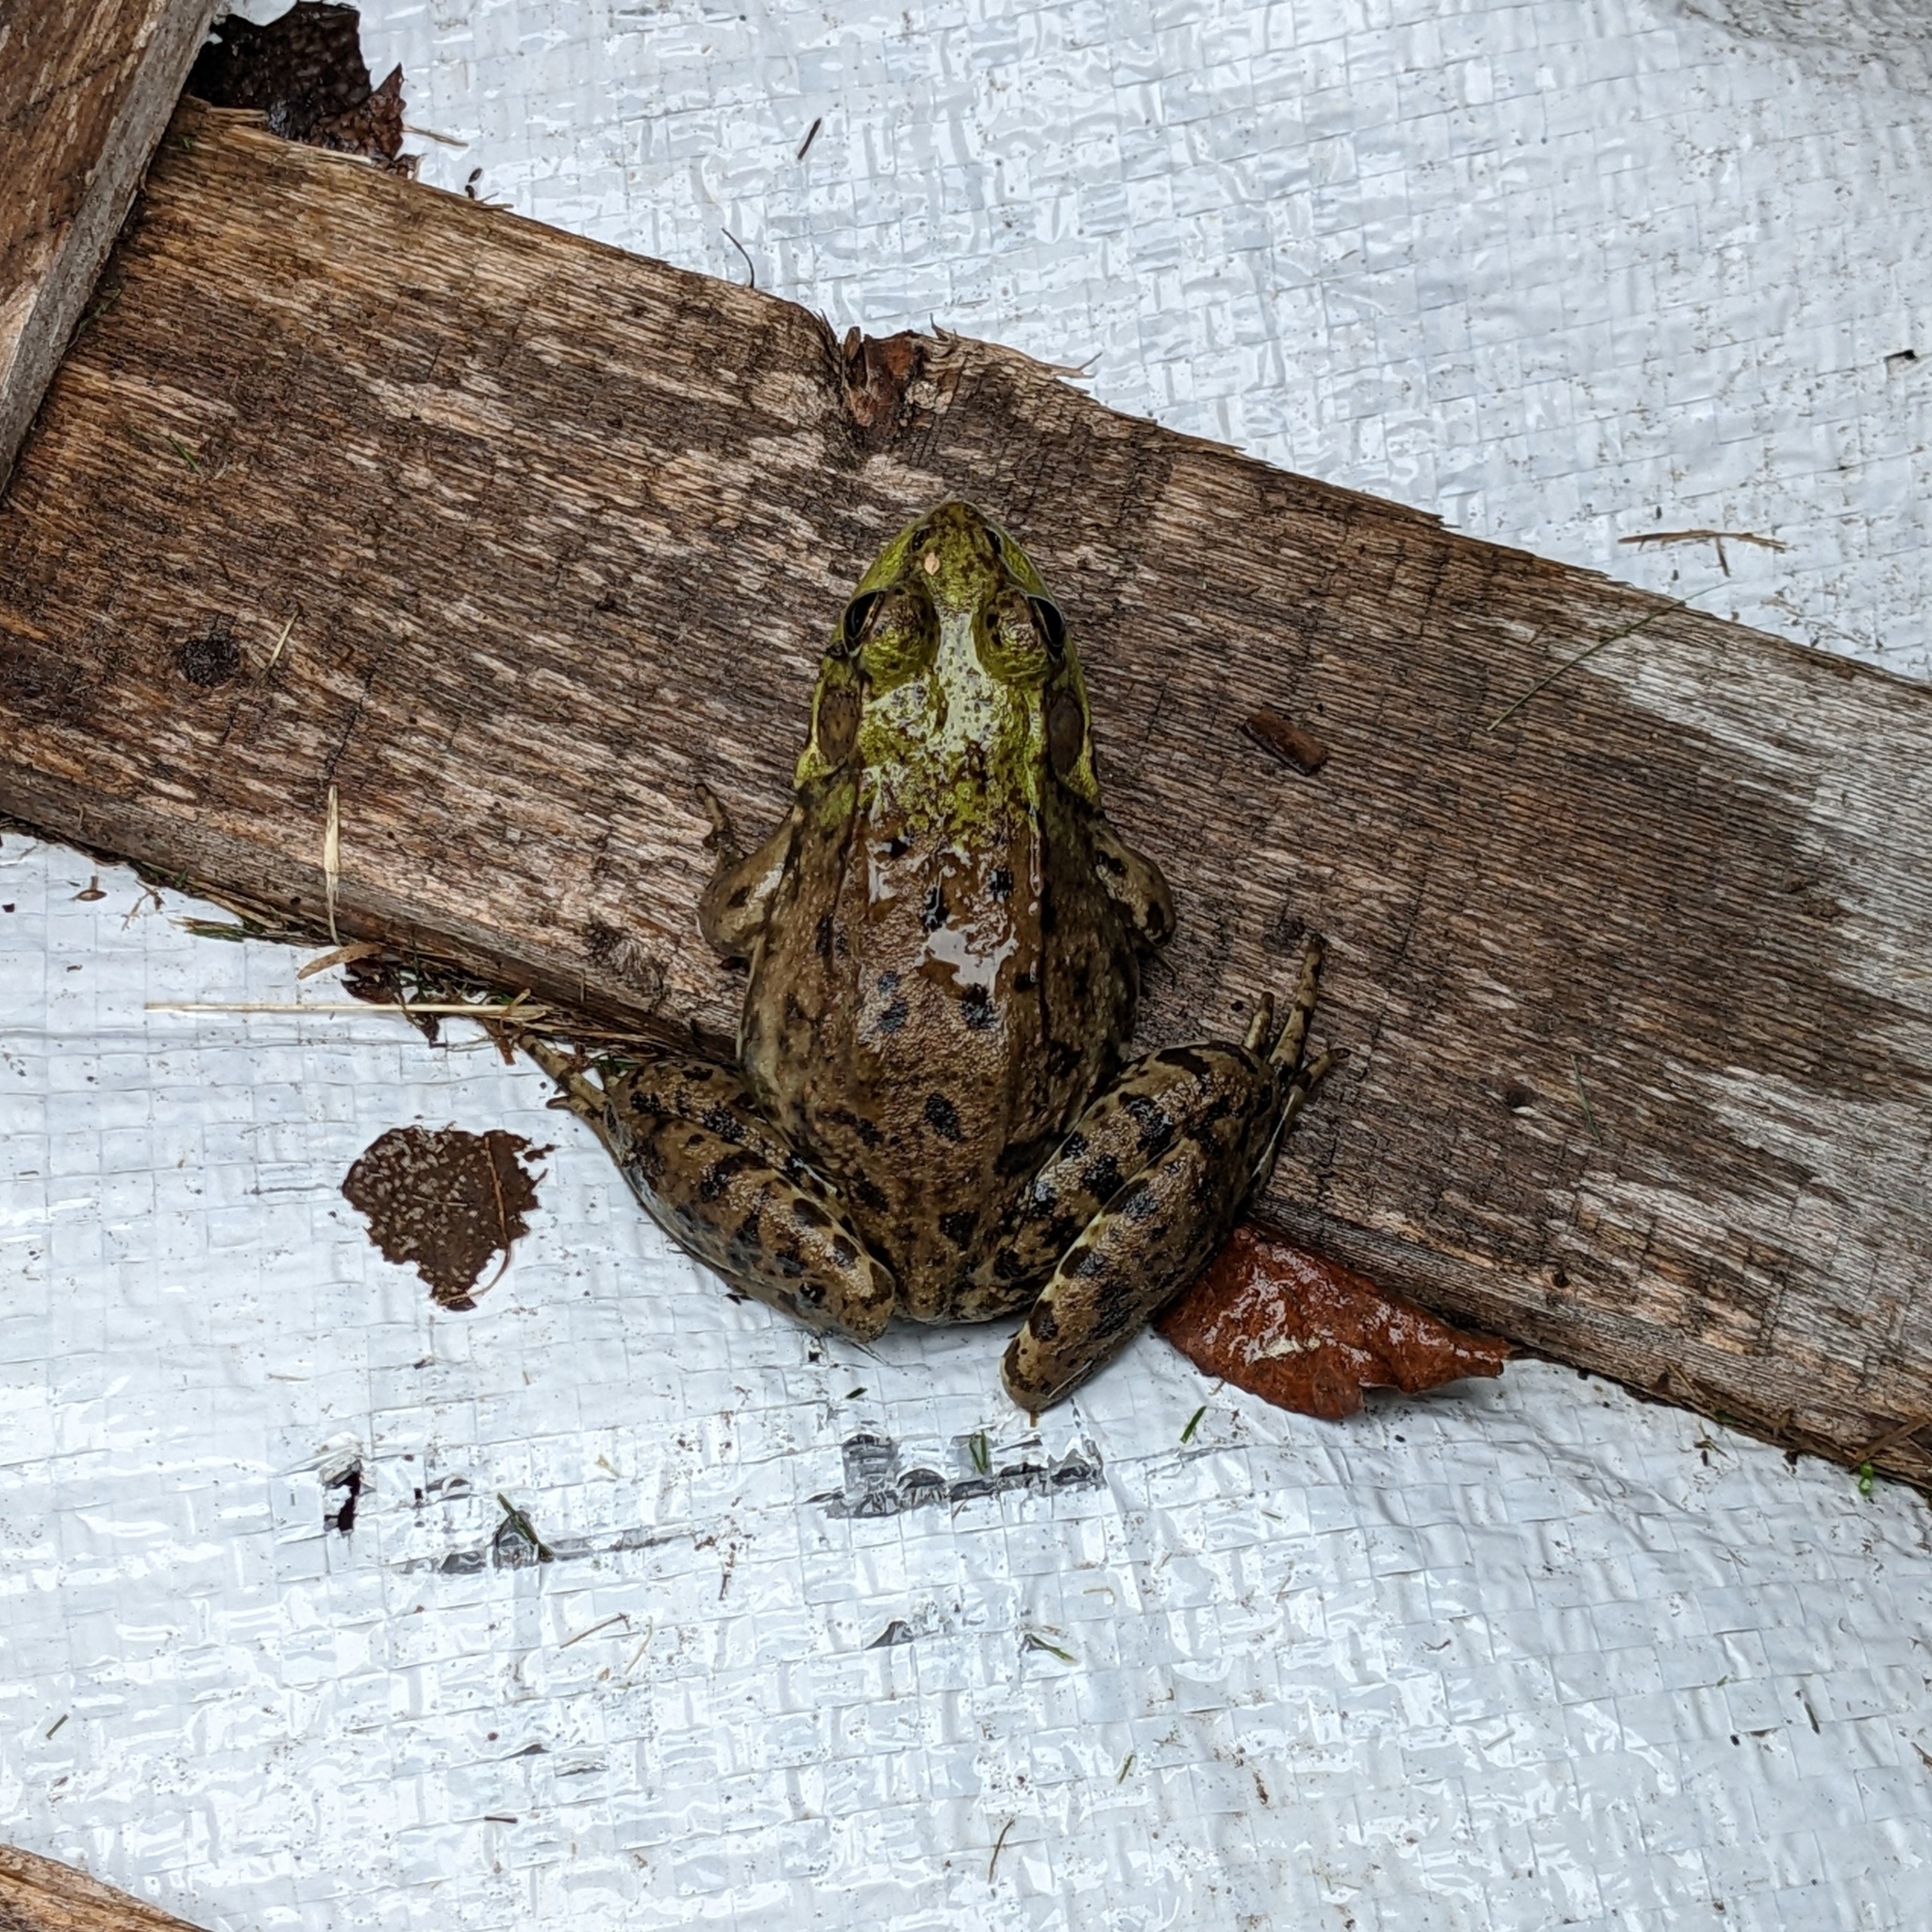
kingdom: Animalia
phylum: Chordata
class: Amphibia
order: Anura
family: Ranidae
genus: Lithobates
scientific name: Lithobates clamitans
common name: Green frog
